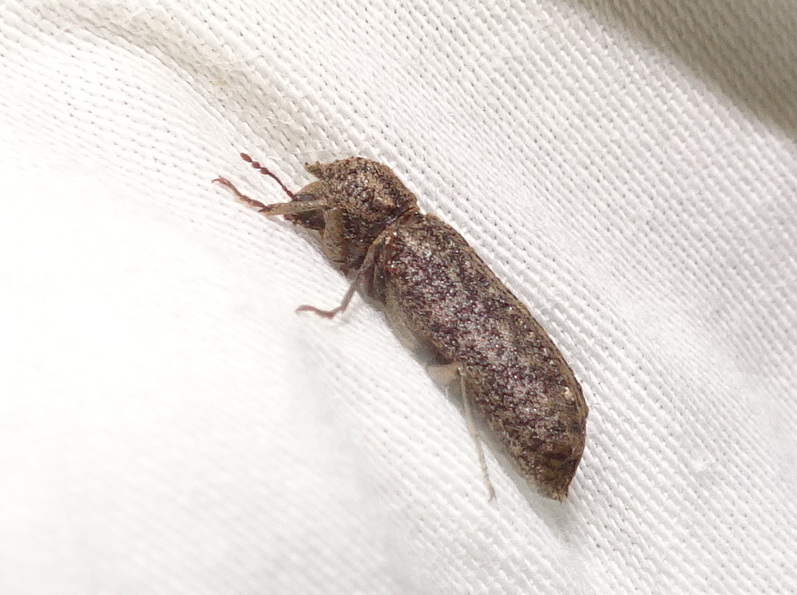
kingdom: Animalia
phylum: Arthropoda
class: Insecta
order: Coleoptera
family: Bostrichidae
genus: Lichenophanes
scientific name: Lichenophanes bicornis
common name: Two-horned powder-post beetle
